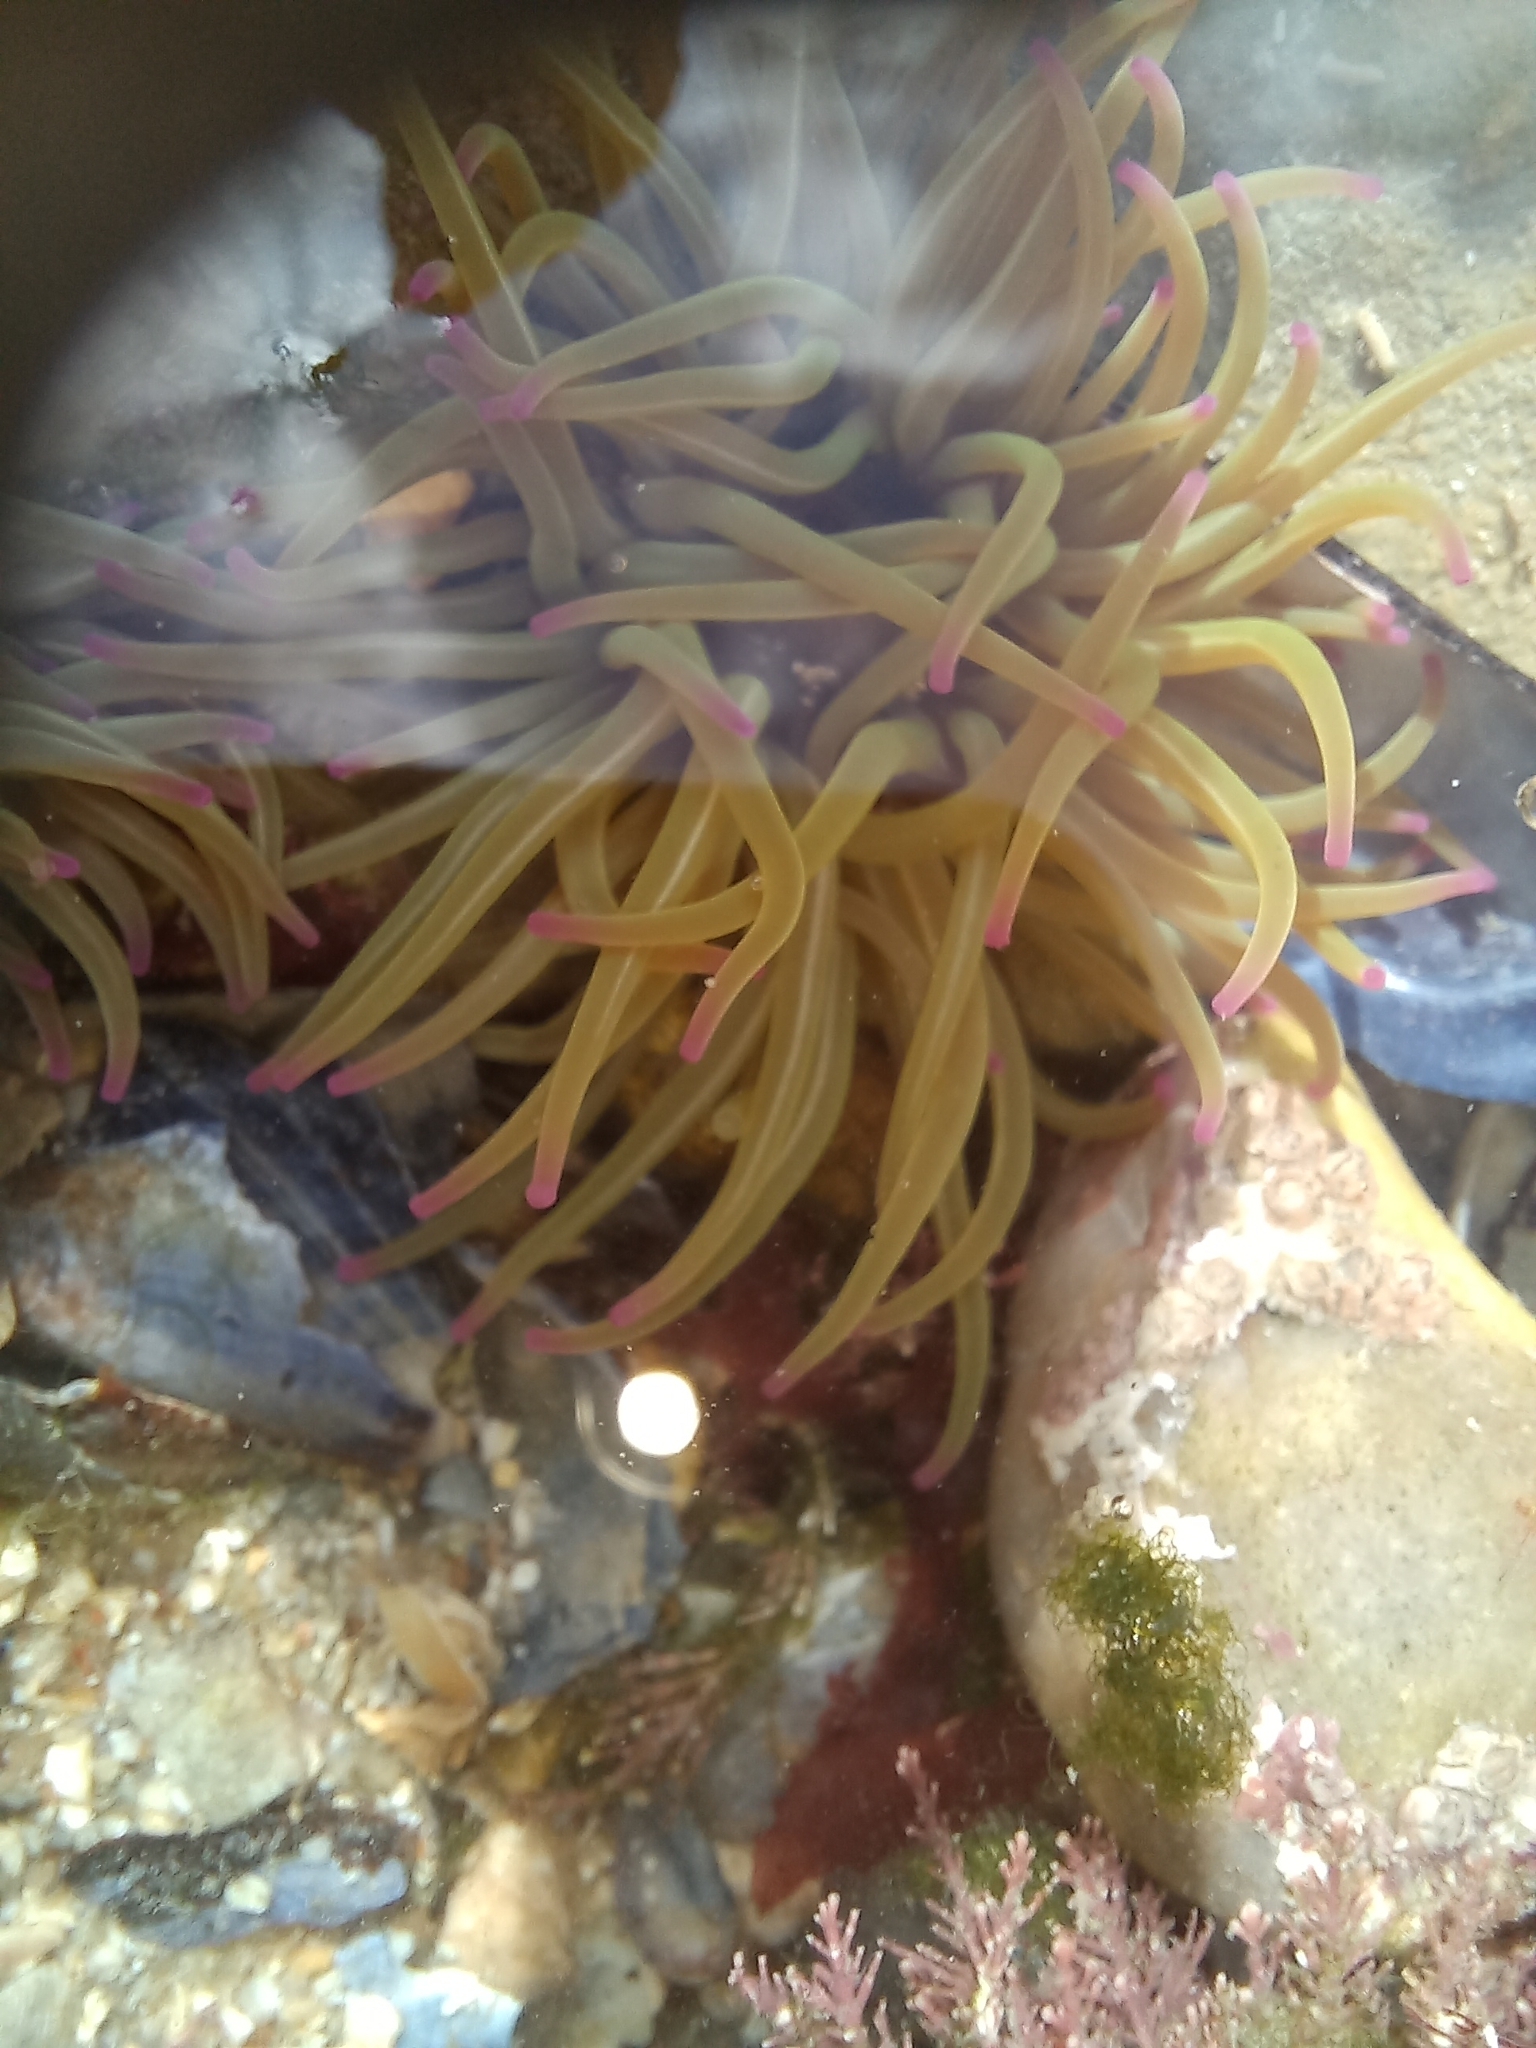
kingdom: Animalia
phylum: Cnidaria
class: Anthozoa
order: Actiniaria
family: Actiniidae
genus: Anemonia
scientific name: Anemonia viridis
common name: Snakelocks anemone
